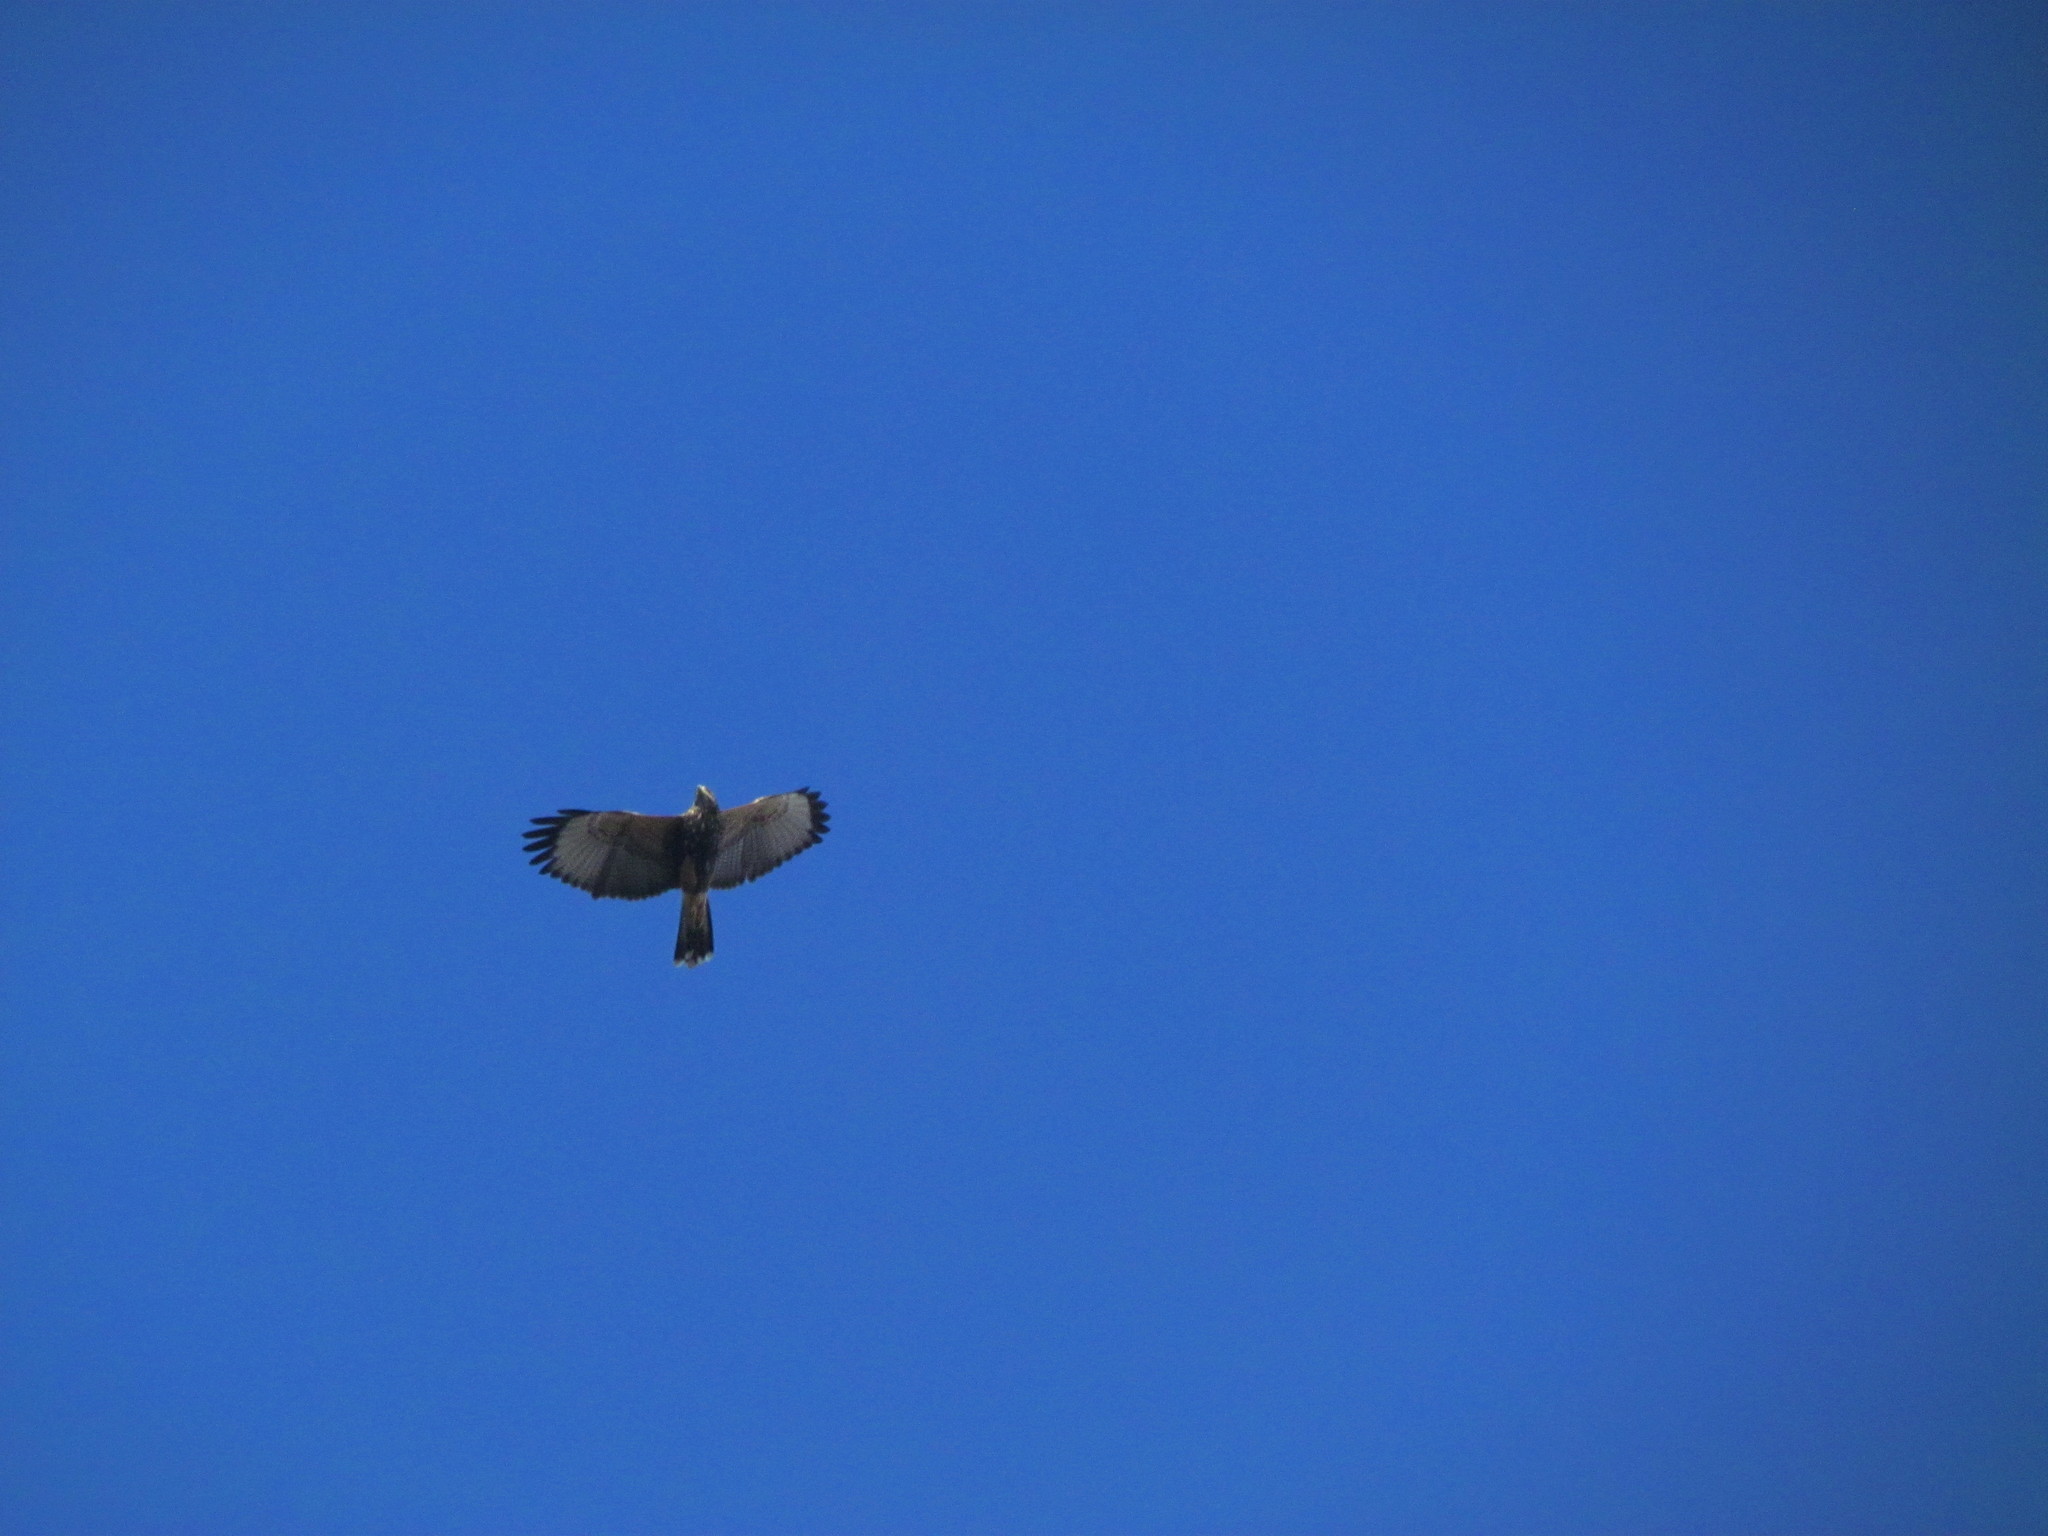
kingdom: Animalia
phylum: Chordata
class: Aves
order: Accipitriformes
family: Accipitridae
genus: Parabuteo
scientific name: Parabuteo unicinctus
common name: Harris's hawk
